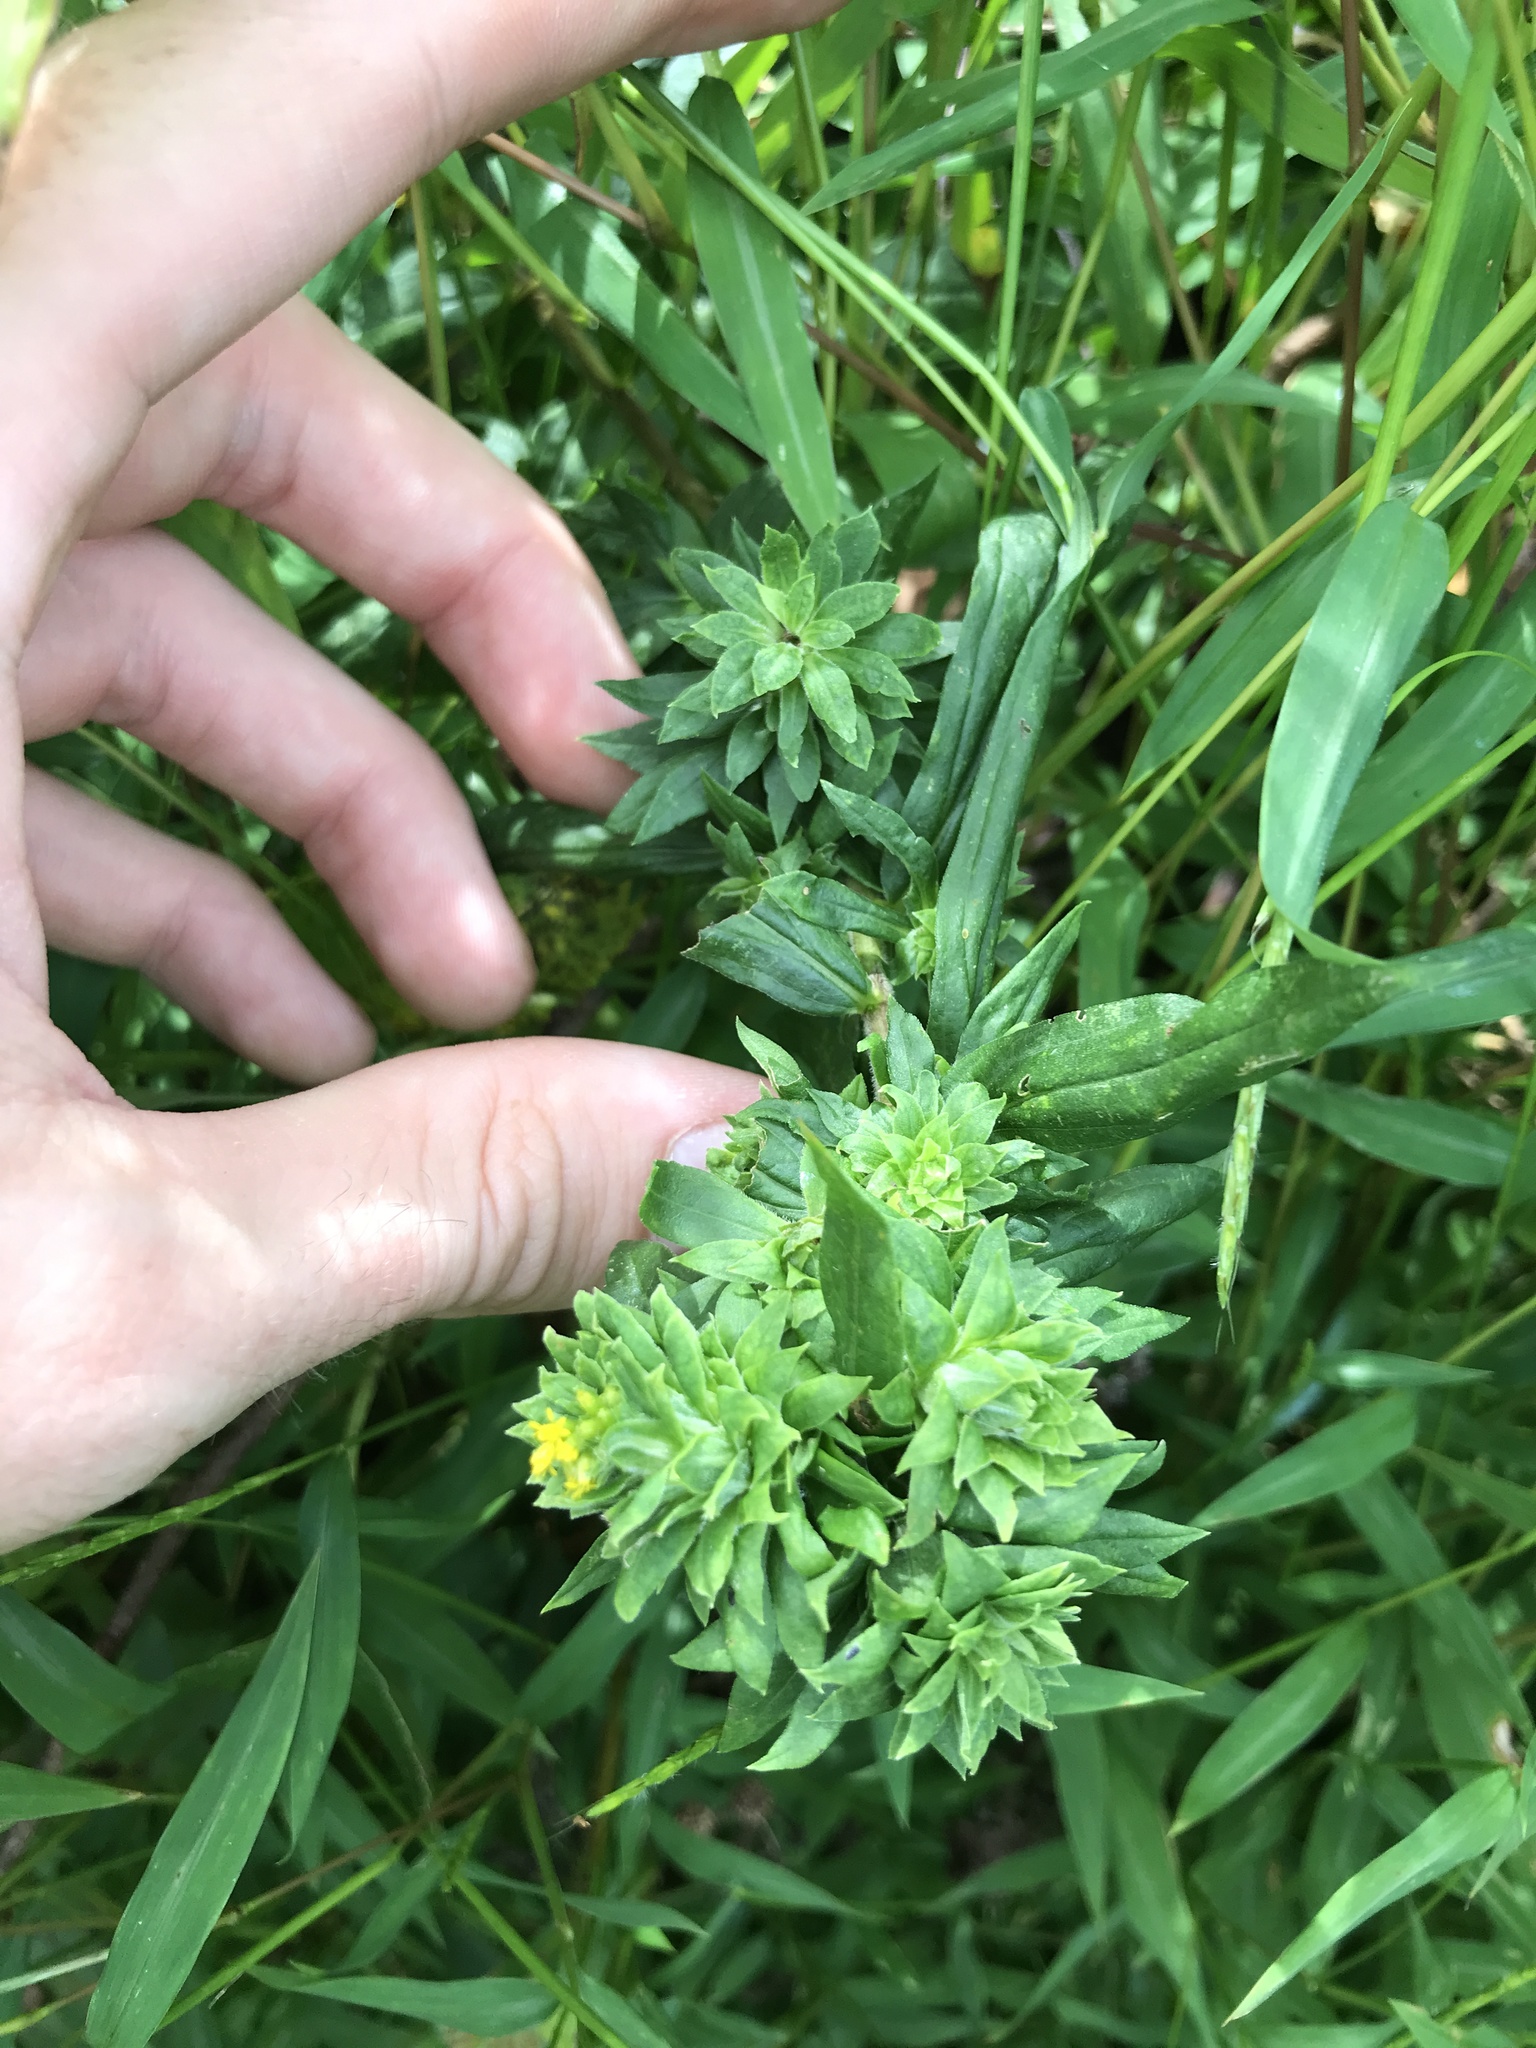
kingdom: Animalia
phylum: Arthropoda
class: Insecta
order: Diptera
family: Tephritidae
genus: Procecidochares
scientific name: Procecidochares atra
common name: Goldenrod brussels sprout gall fly
